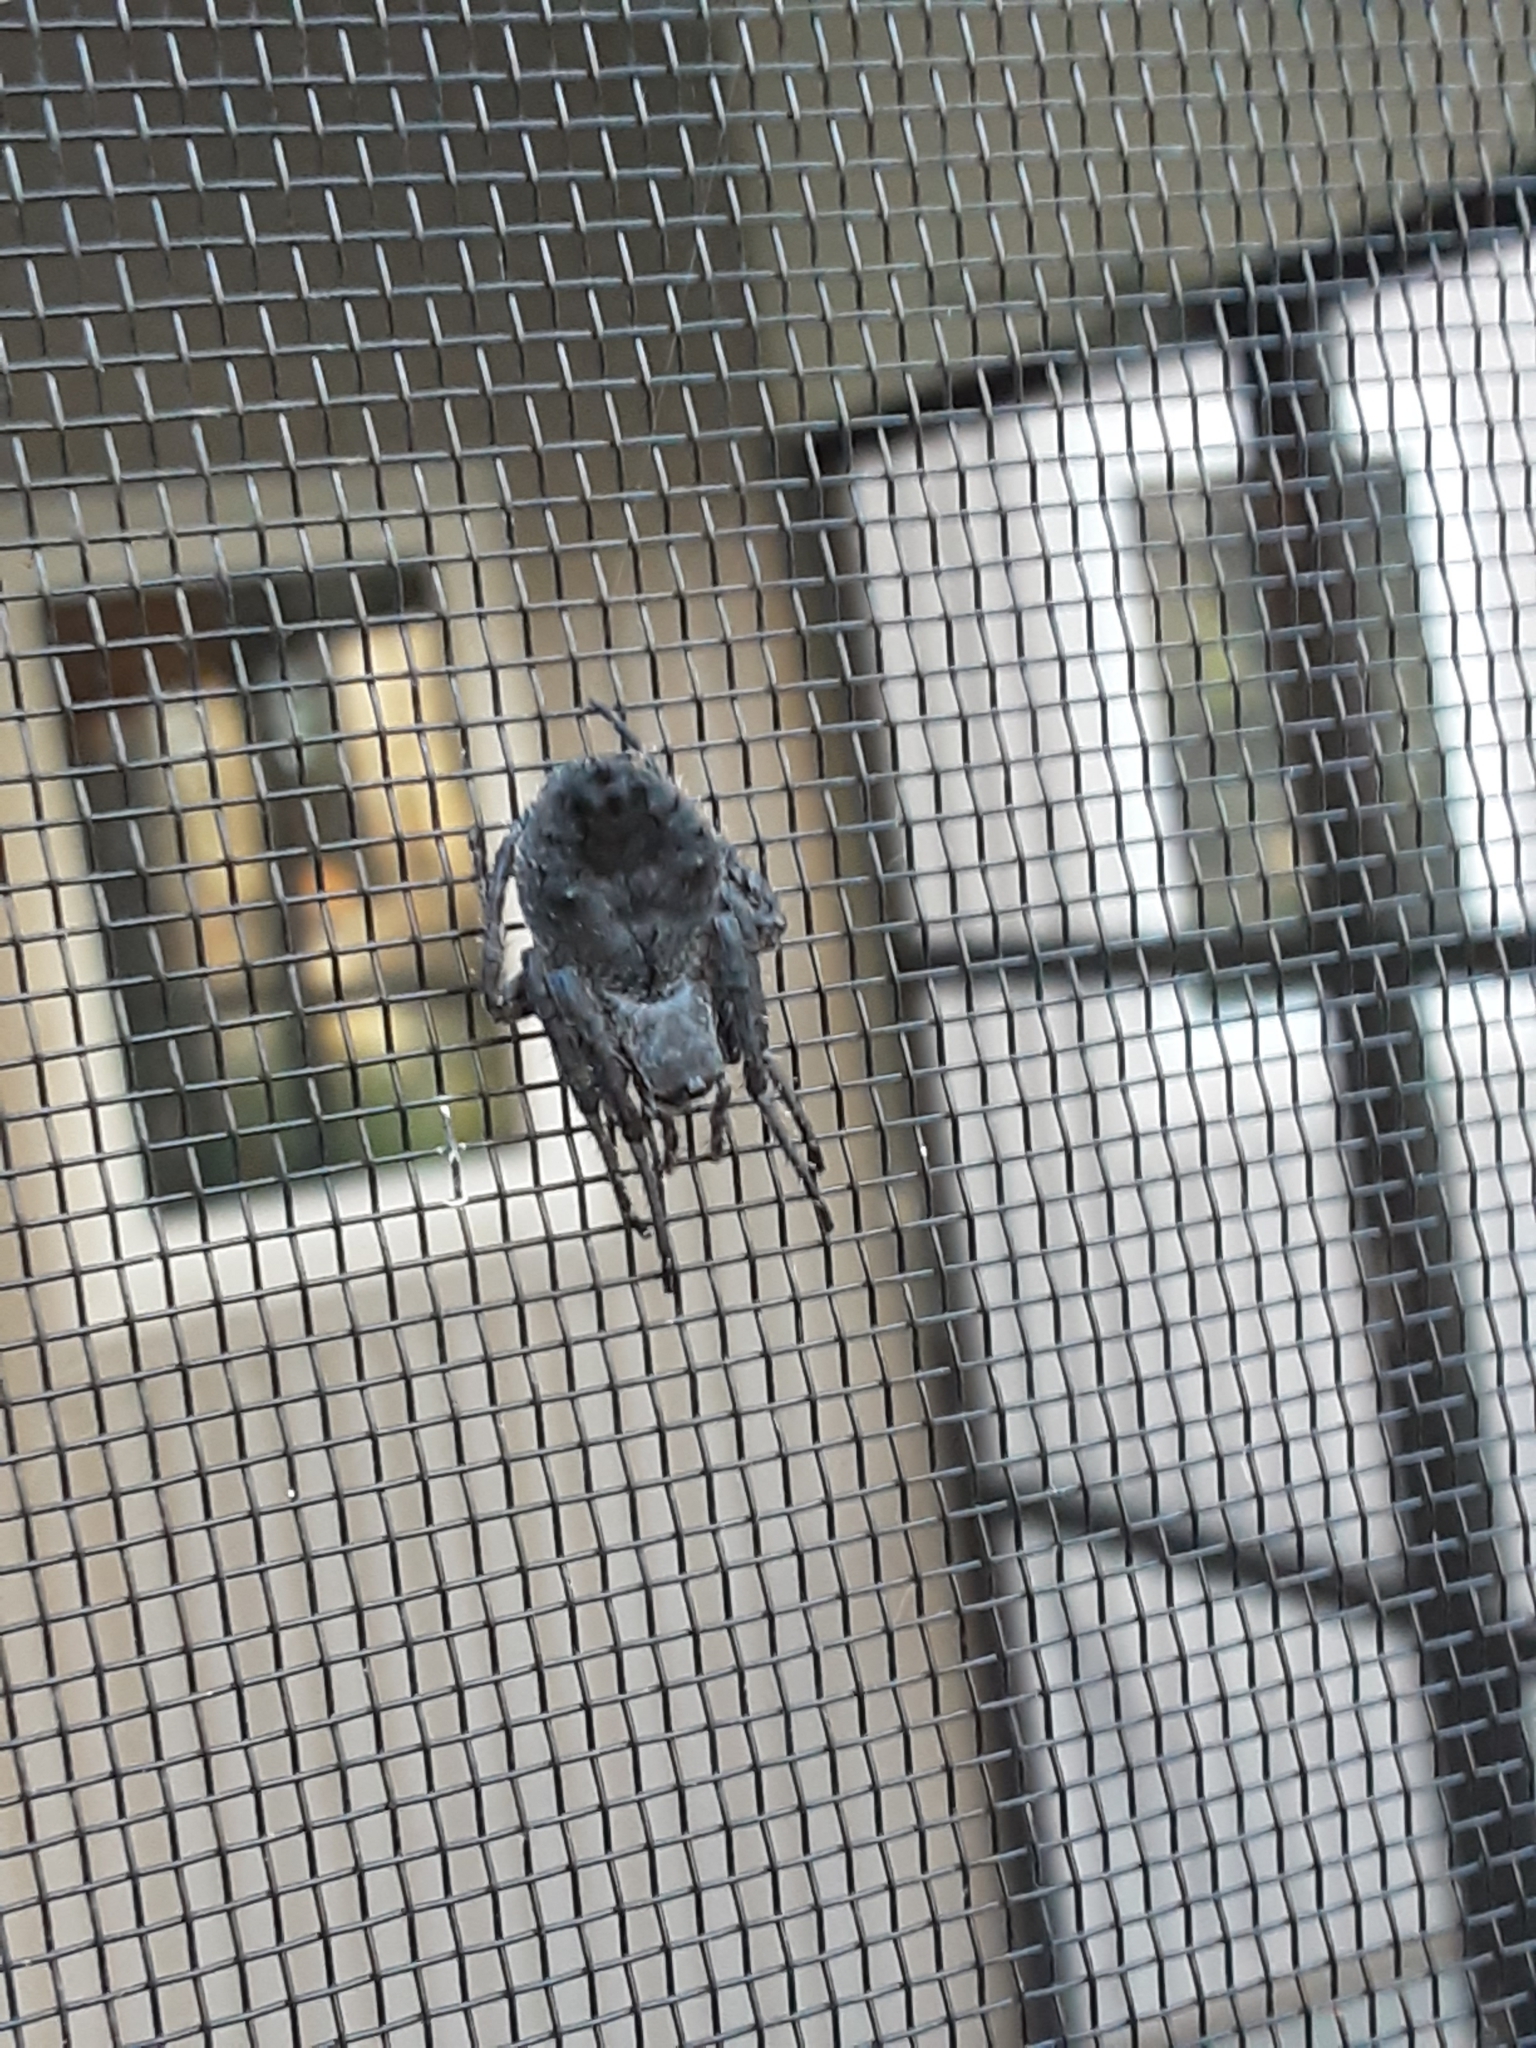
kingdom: Animalia
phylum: Arthropoda
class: Arachnida
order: Araneae
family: Araneidae
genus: Eriophora
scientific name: Eriophora pustulosa
